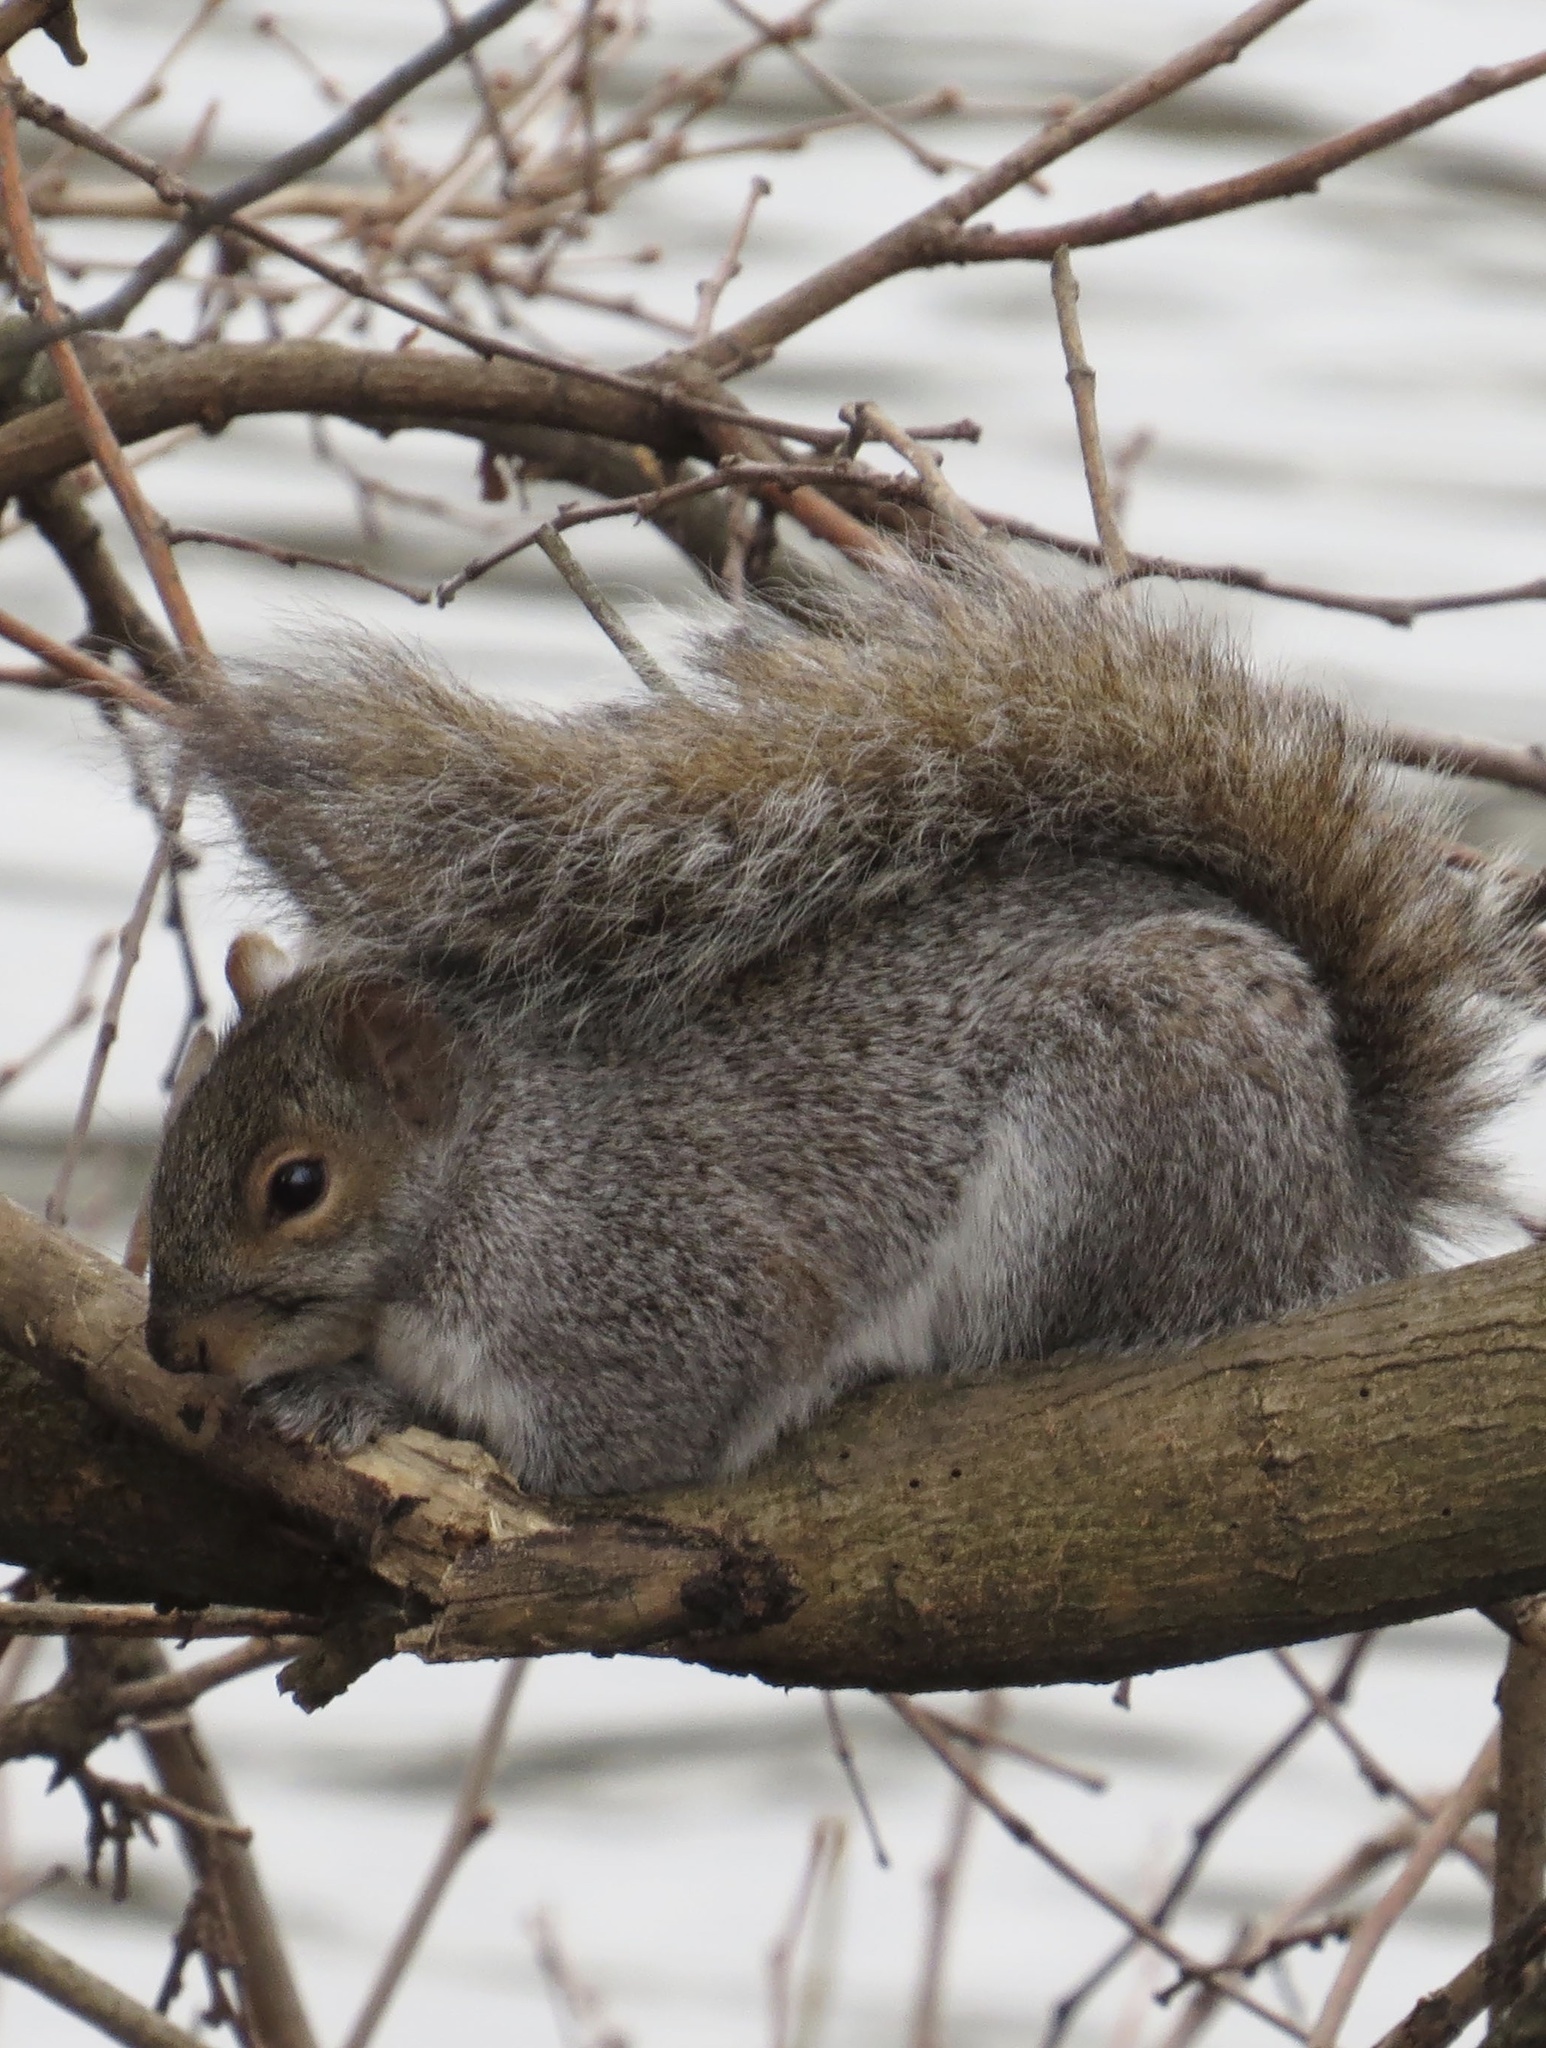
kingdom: Animalia
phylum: Chordata
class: Mammalia
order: Rodentia
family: Sciuridae
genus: Sciurus
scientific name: Sciurus carolinensis
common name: Eastern gray squirrel
